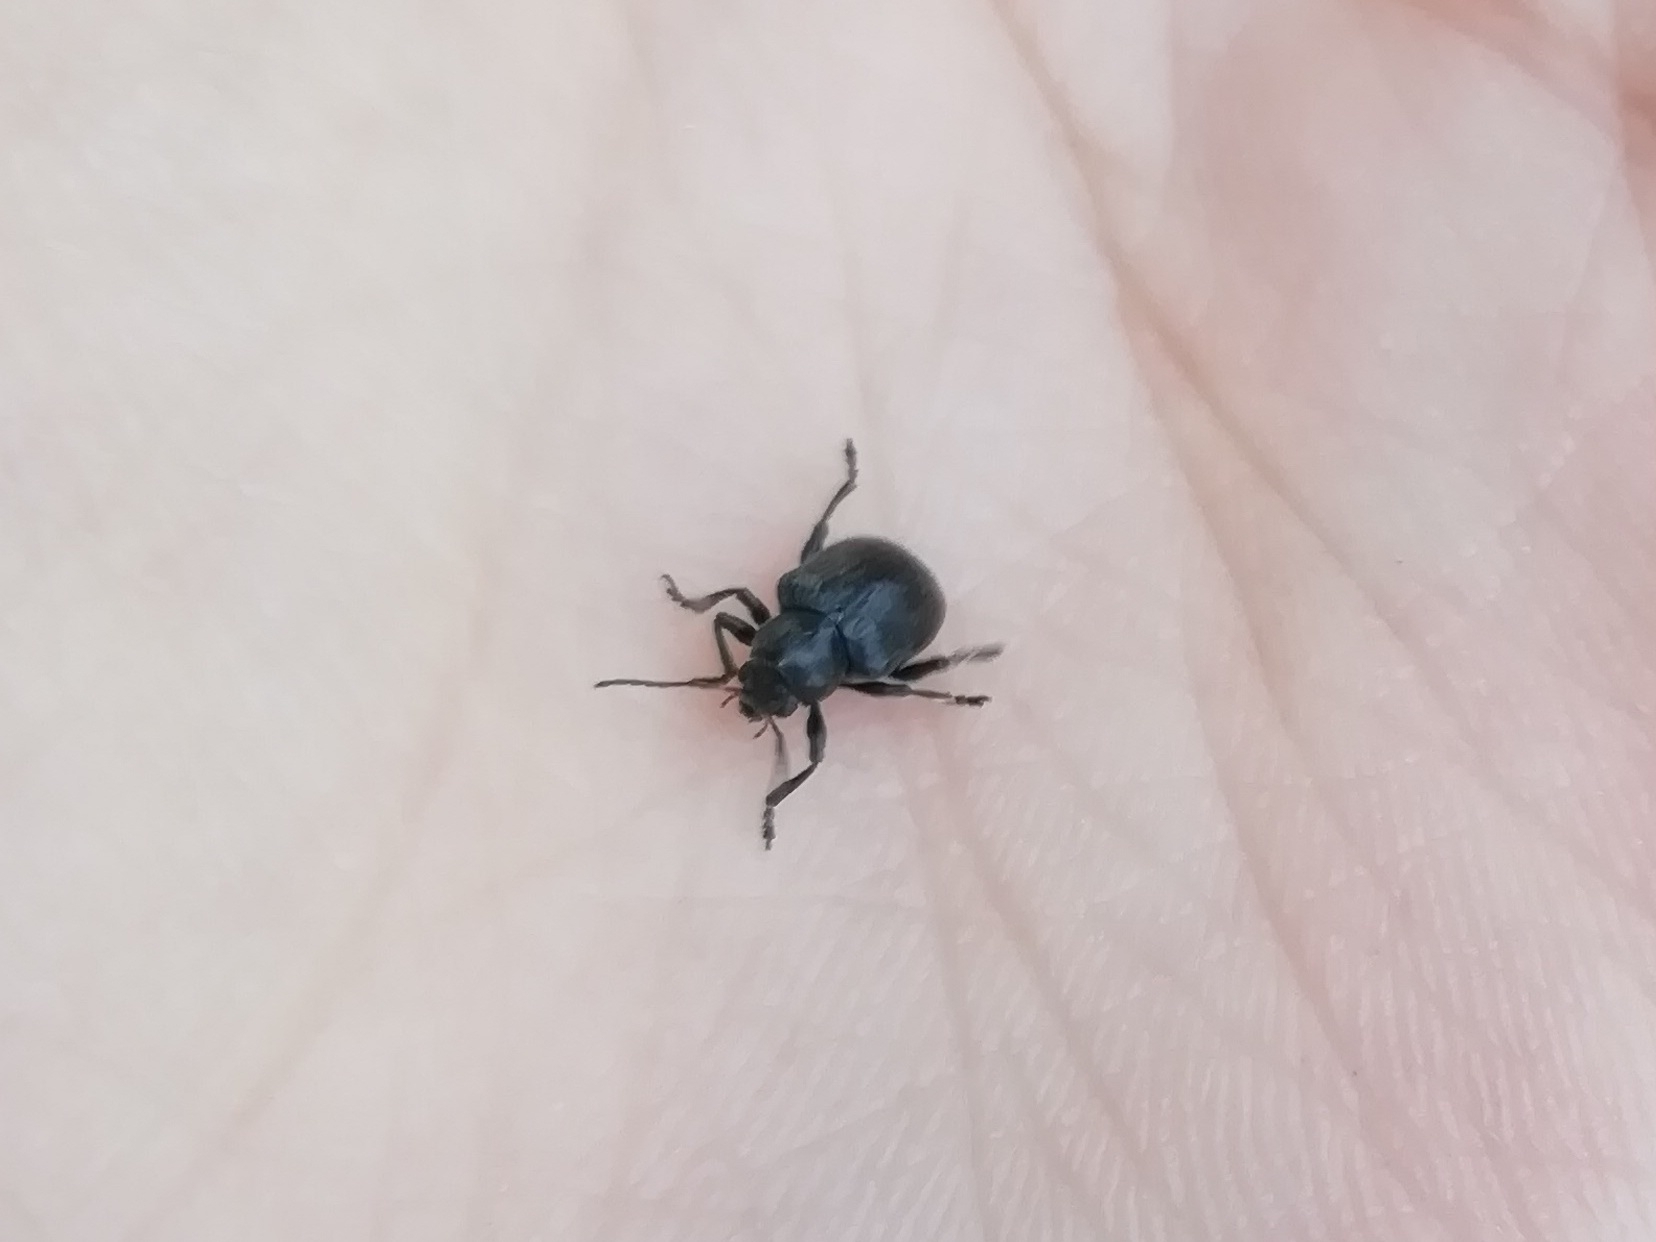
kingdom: Animalia
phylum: Arthropoda
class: Insecta
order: Coleoptera
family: Chrysomelidae
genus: Bromius
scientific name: Bromius obscurus
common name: Western grape rootworm
